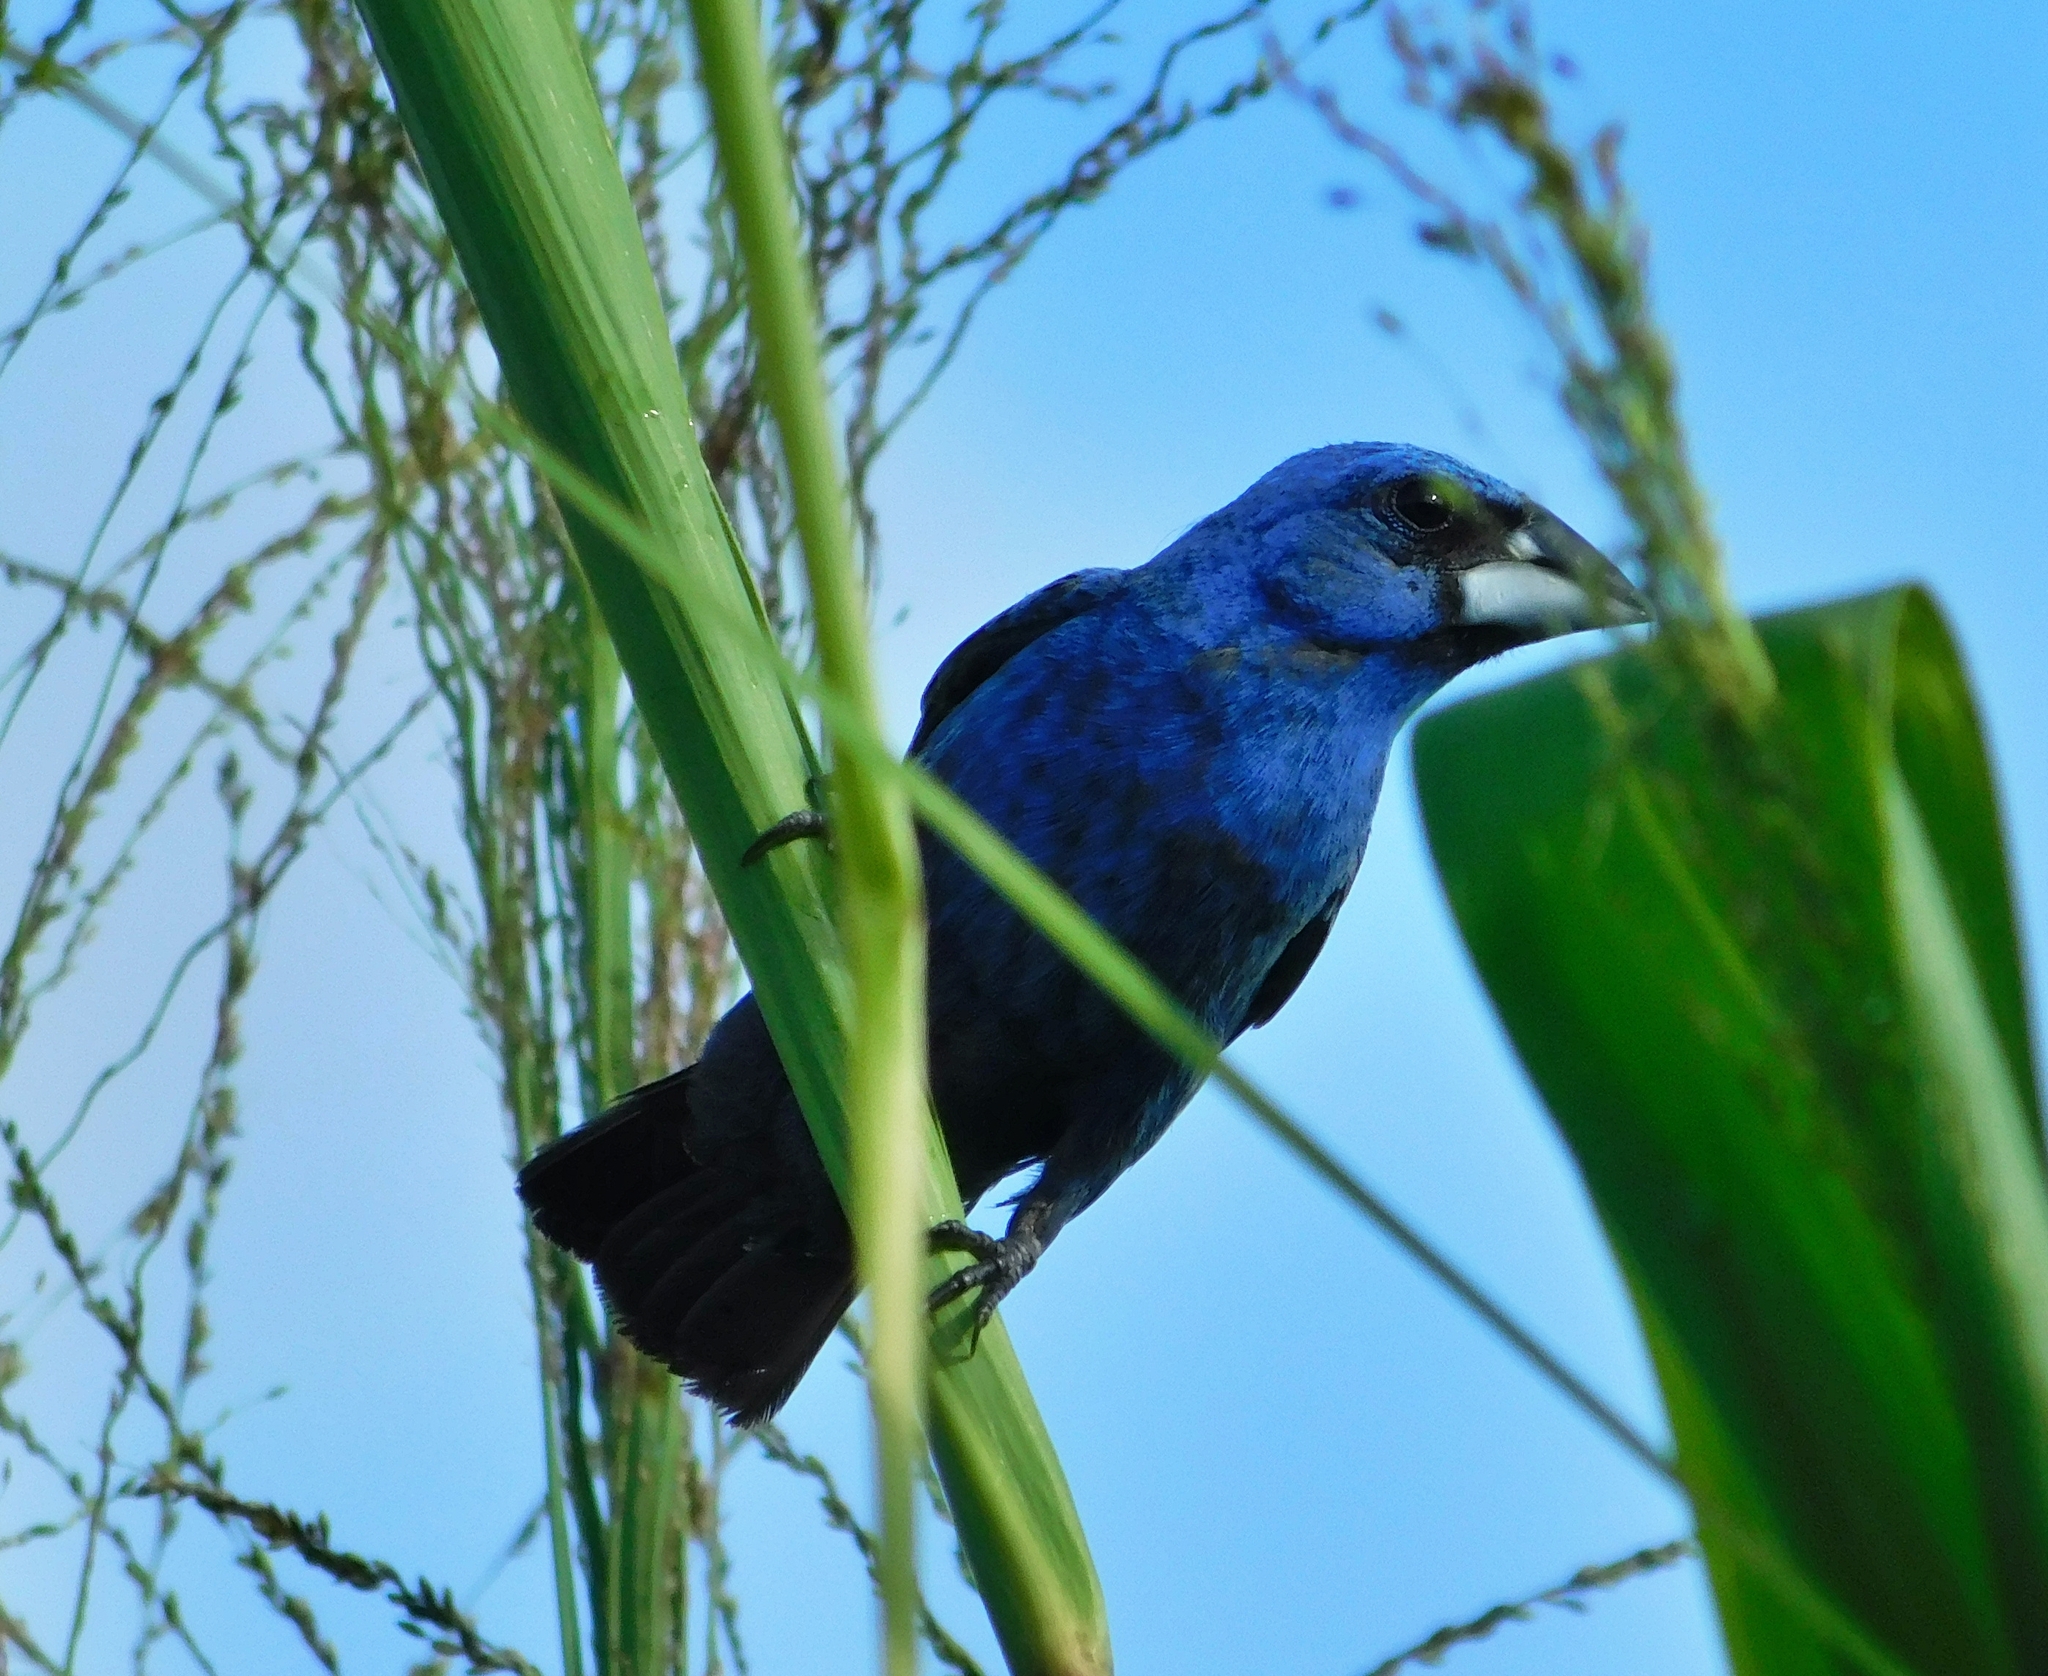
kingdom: Animalia
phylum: Chordata
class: Aves
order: Passeriformes
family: Cardinalidae
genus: Passerina
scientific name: Passerina caerulea
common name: Blue grosbeak
